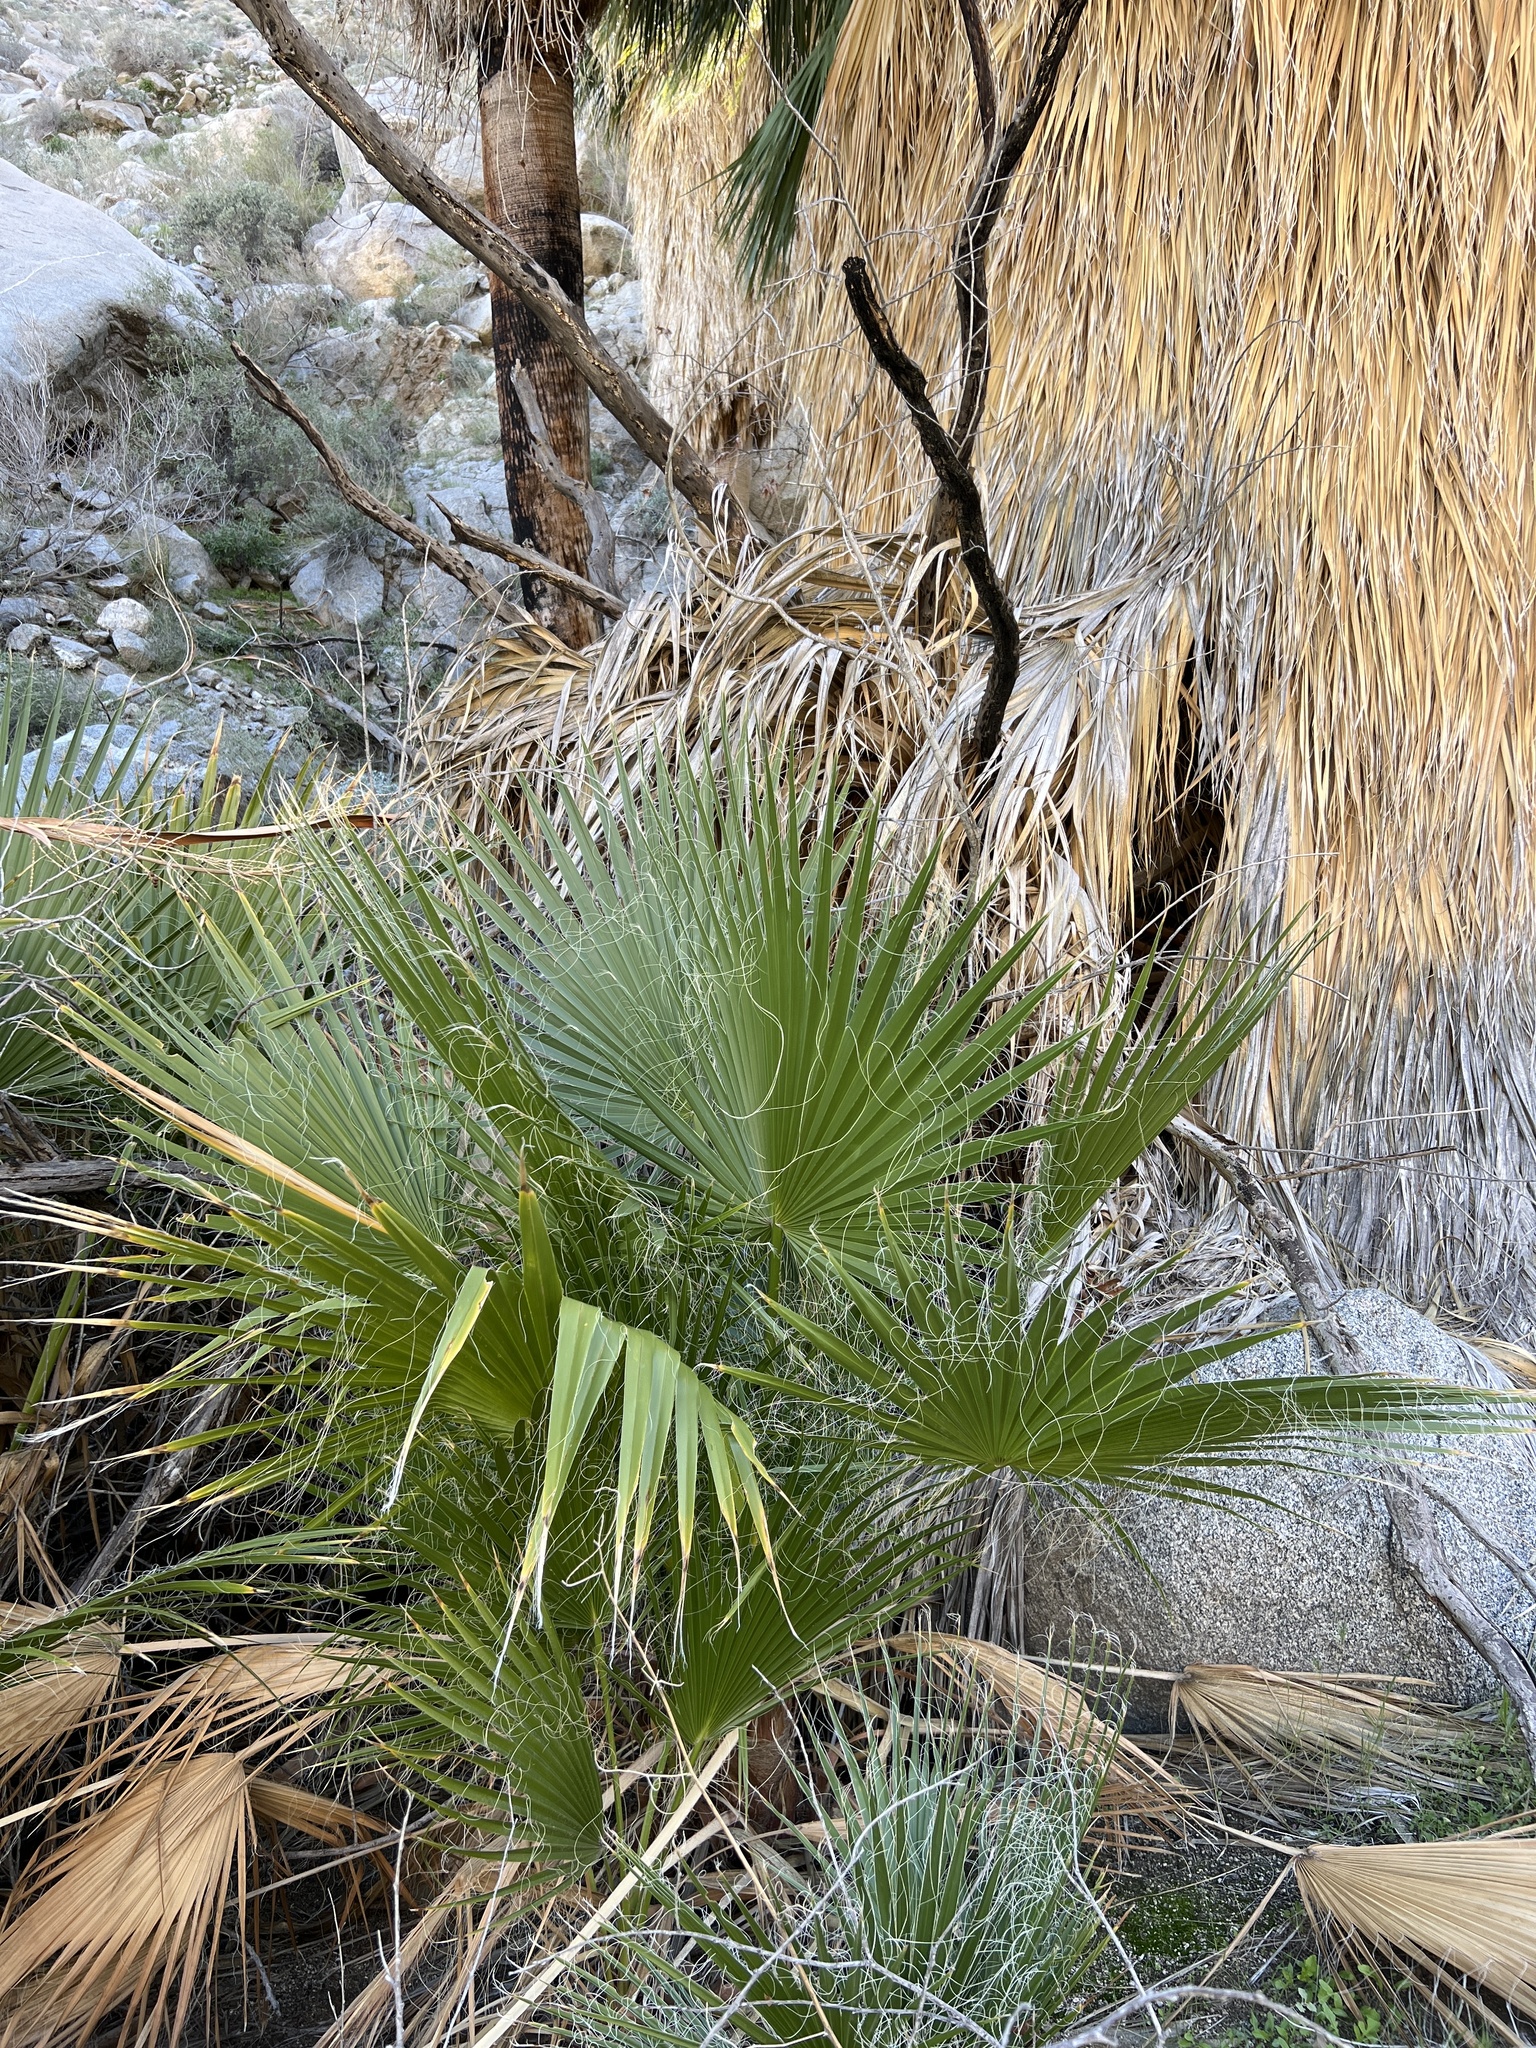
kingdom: Plantae
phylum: Tracheophyta
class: Liliopsida
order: Arecales
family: Arecaceae
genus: Washingtonia
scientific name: Washingtonia filifera
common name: California fan palm
